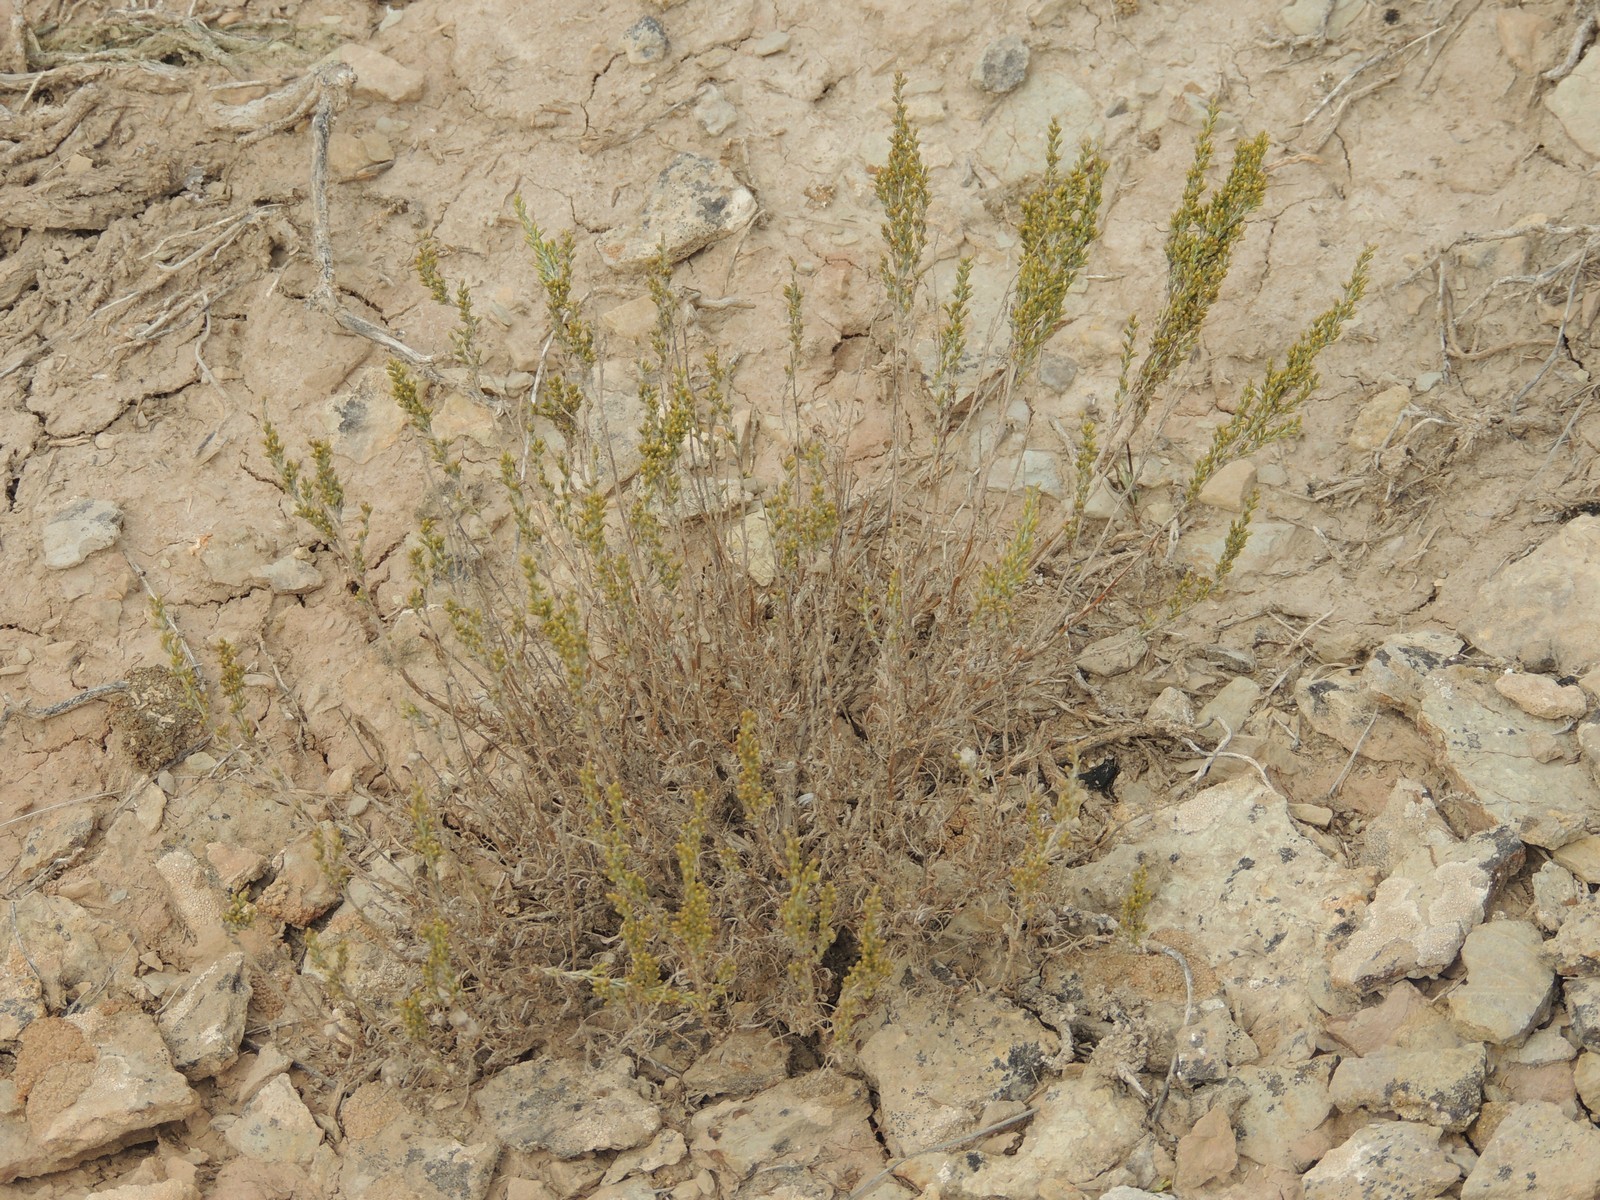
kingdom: Plantae
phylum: Tracheophyta
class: Magnoliopsida
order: Asterales
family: Asteraceae
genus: Artemisia
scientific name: Artemisia pauciflora
